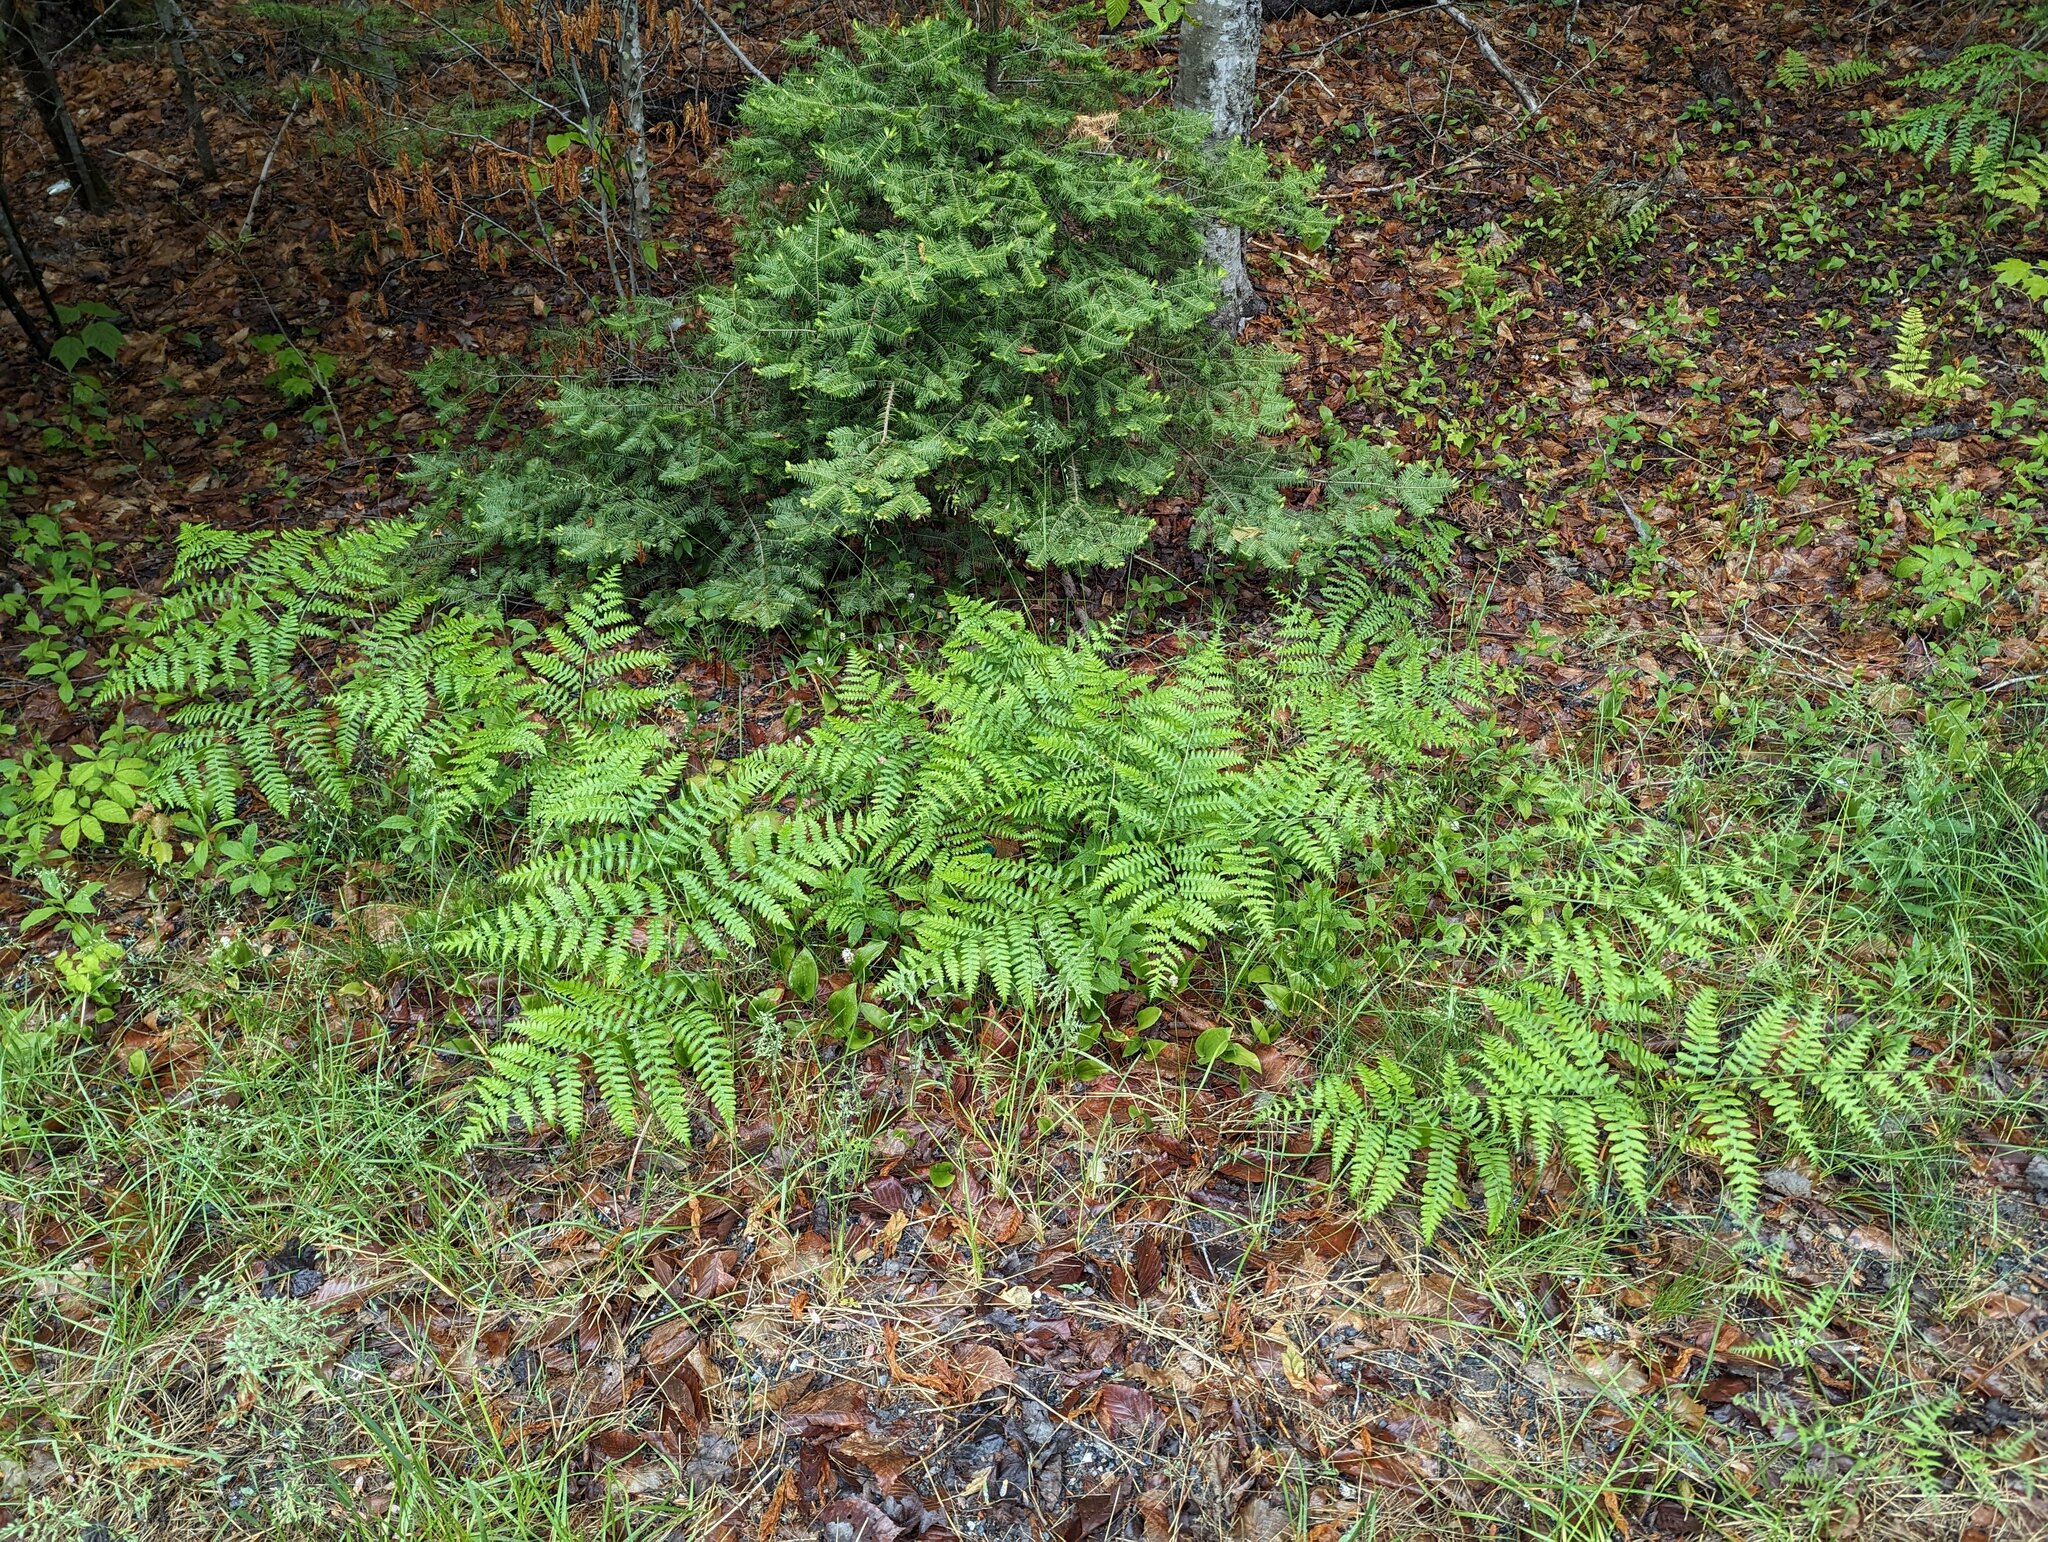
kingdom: Plantae
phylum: Tracheophyta
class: Polypodiopsida
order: Polypodiales
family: Dennstaedtiaceae
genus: Pteridium
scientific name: Pteridium aquilinum
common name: Bracken
